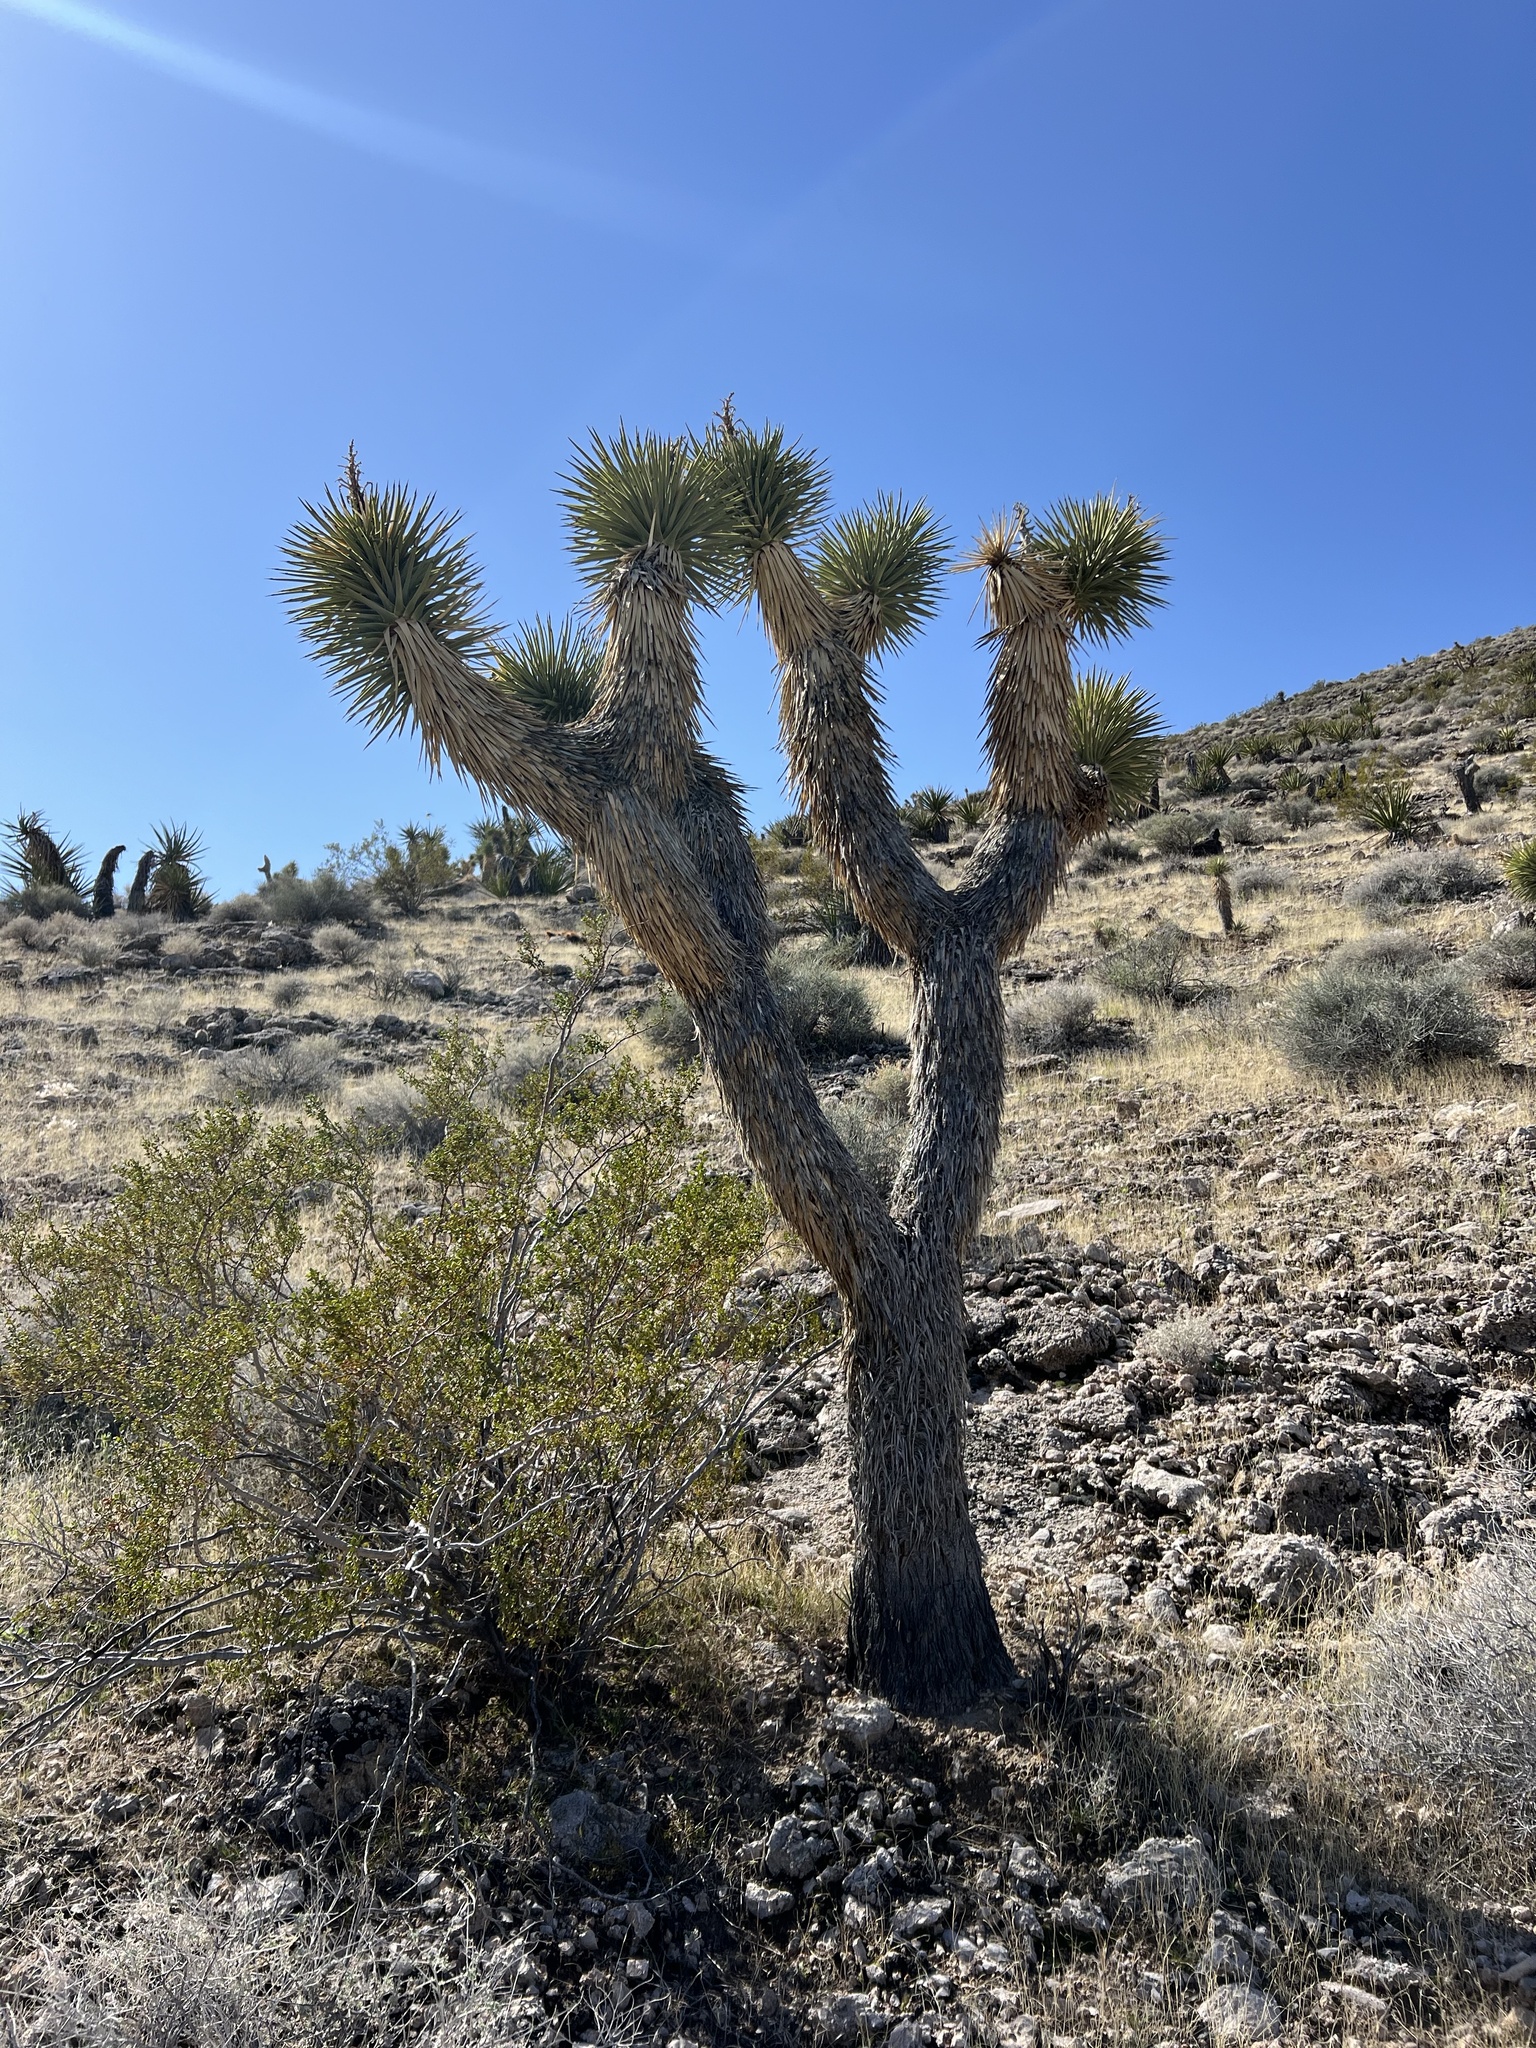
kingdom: Plantae
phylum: Tracheophyta
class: Liliopsida
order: Asparagales
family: Asparagaceae
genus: Yucca
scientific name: Yucca brevifolia
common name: Joshua tree
